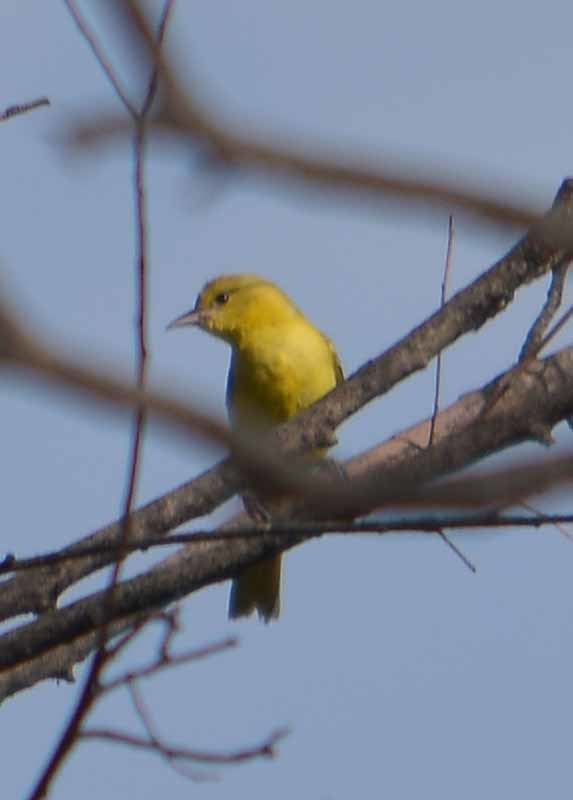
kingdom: Animalia
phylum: Chordata
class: Aves
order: Passeriformes
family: Icteridae
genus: Icterus
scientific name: Icterus spurius
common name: Orchard oriole
